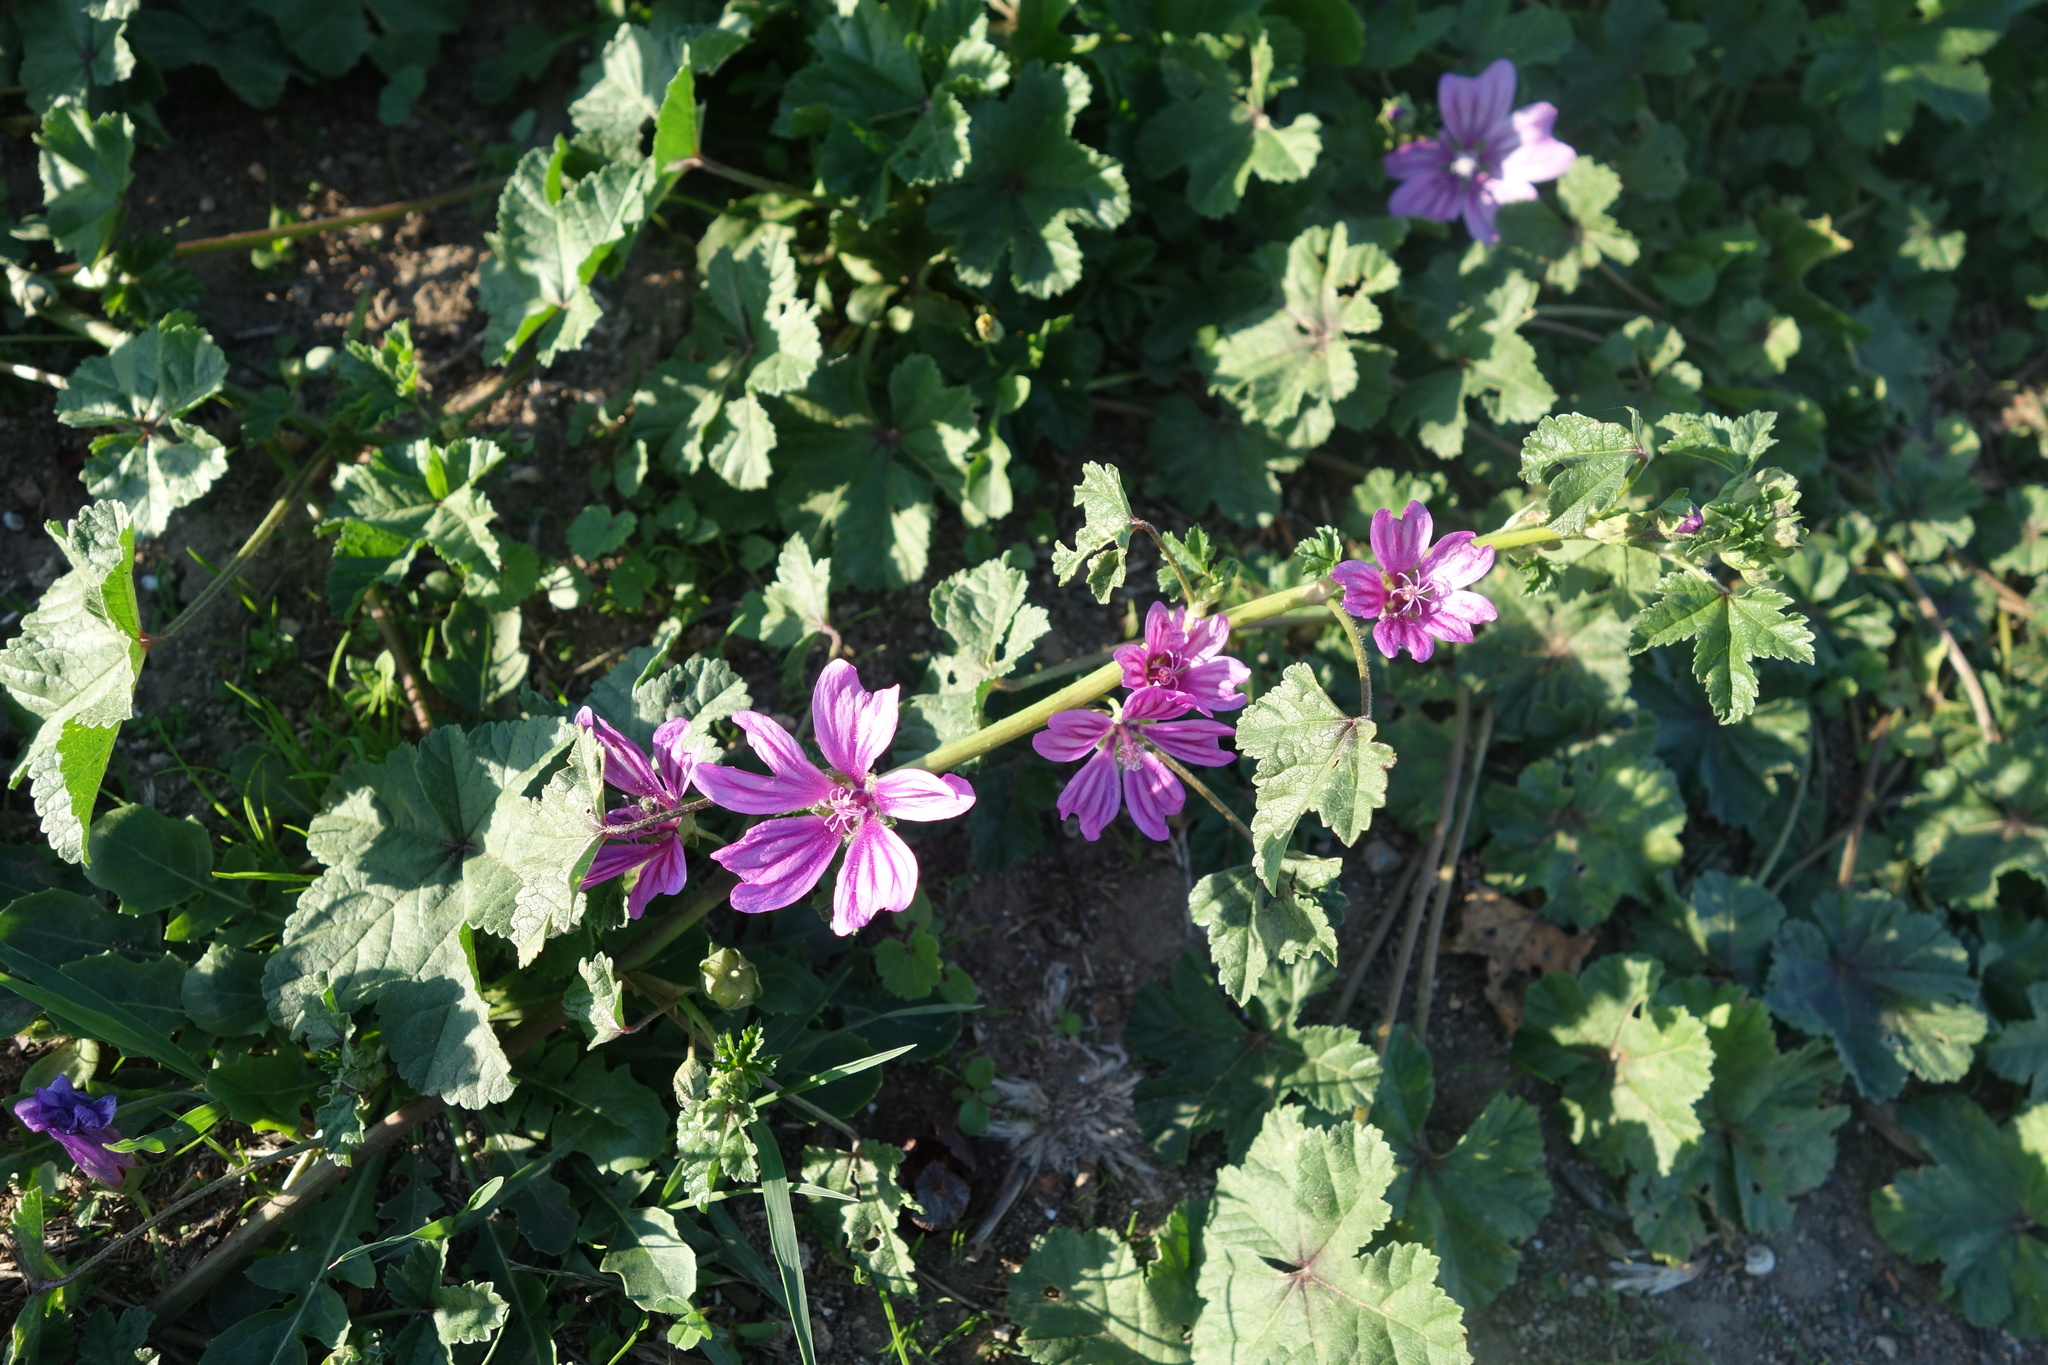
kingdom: Plantae
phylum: Tracheophyta
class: Magnoliopsida
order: Malvales
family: Malvaceae
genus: Malva
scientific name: Malva sylvestris
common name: Common mallow
